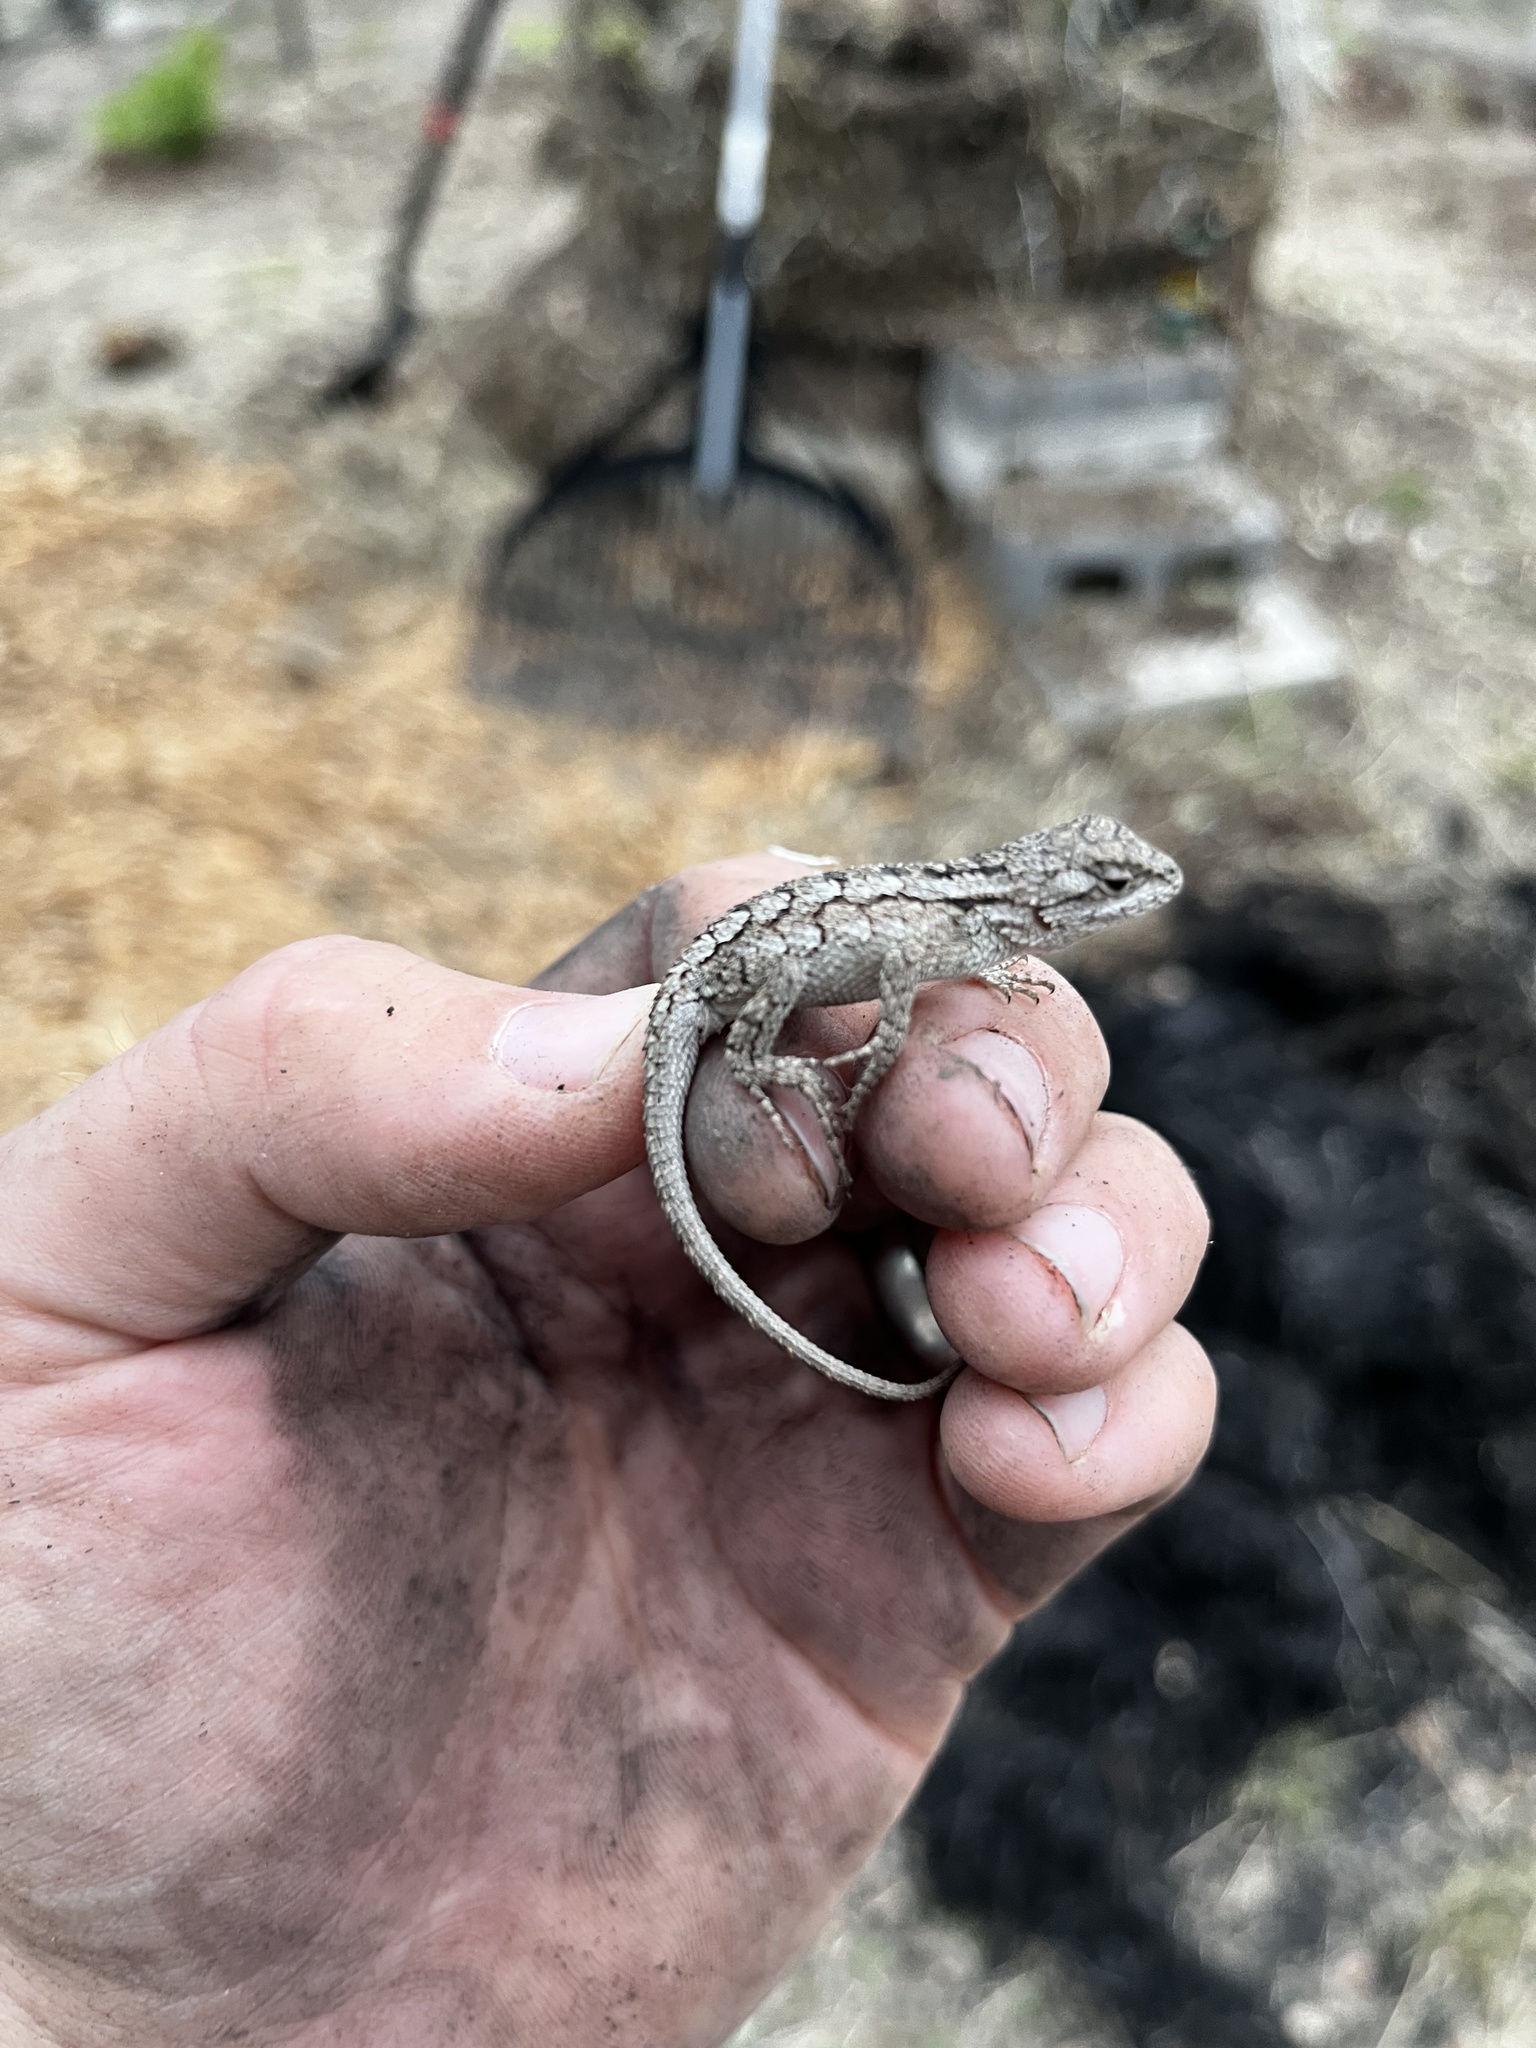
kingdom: Animalia
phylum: Chordata
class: Squamata
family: Phrynosomatidae
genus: Sceloporus
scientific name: Sceloporus olivaceus
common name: Texas spiny lizard
